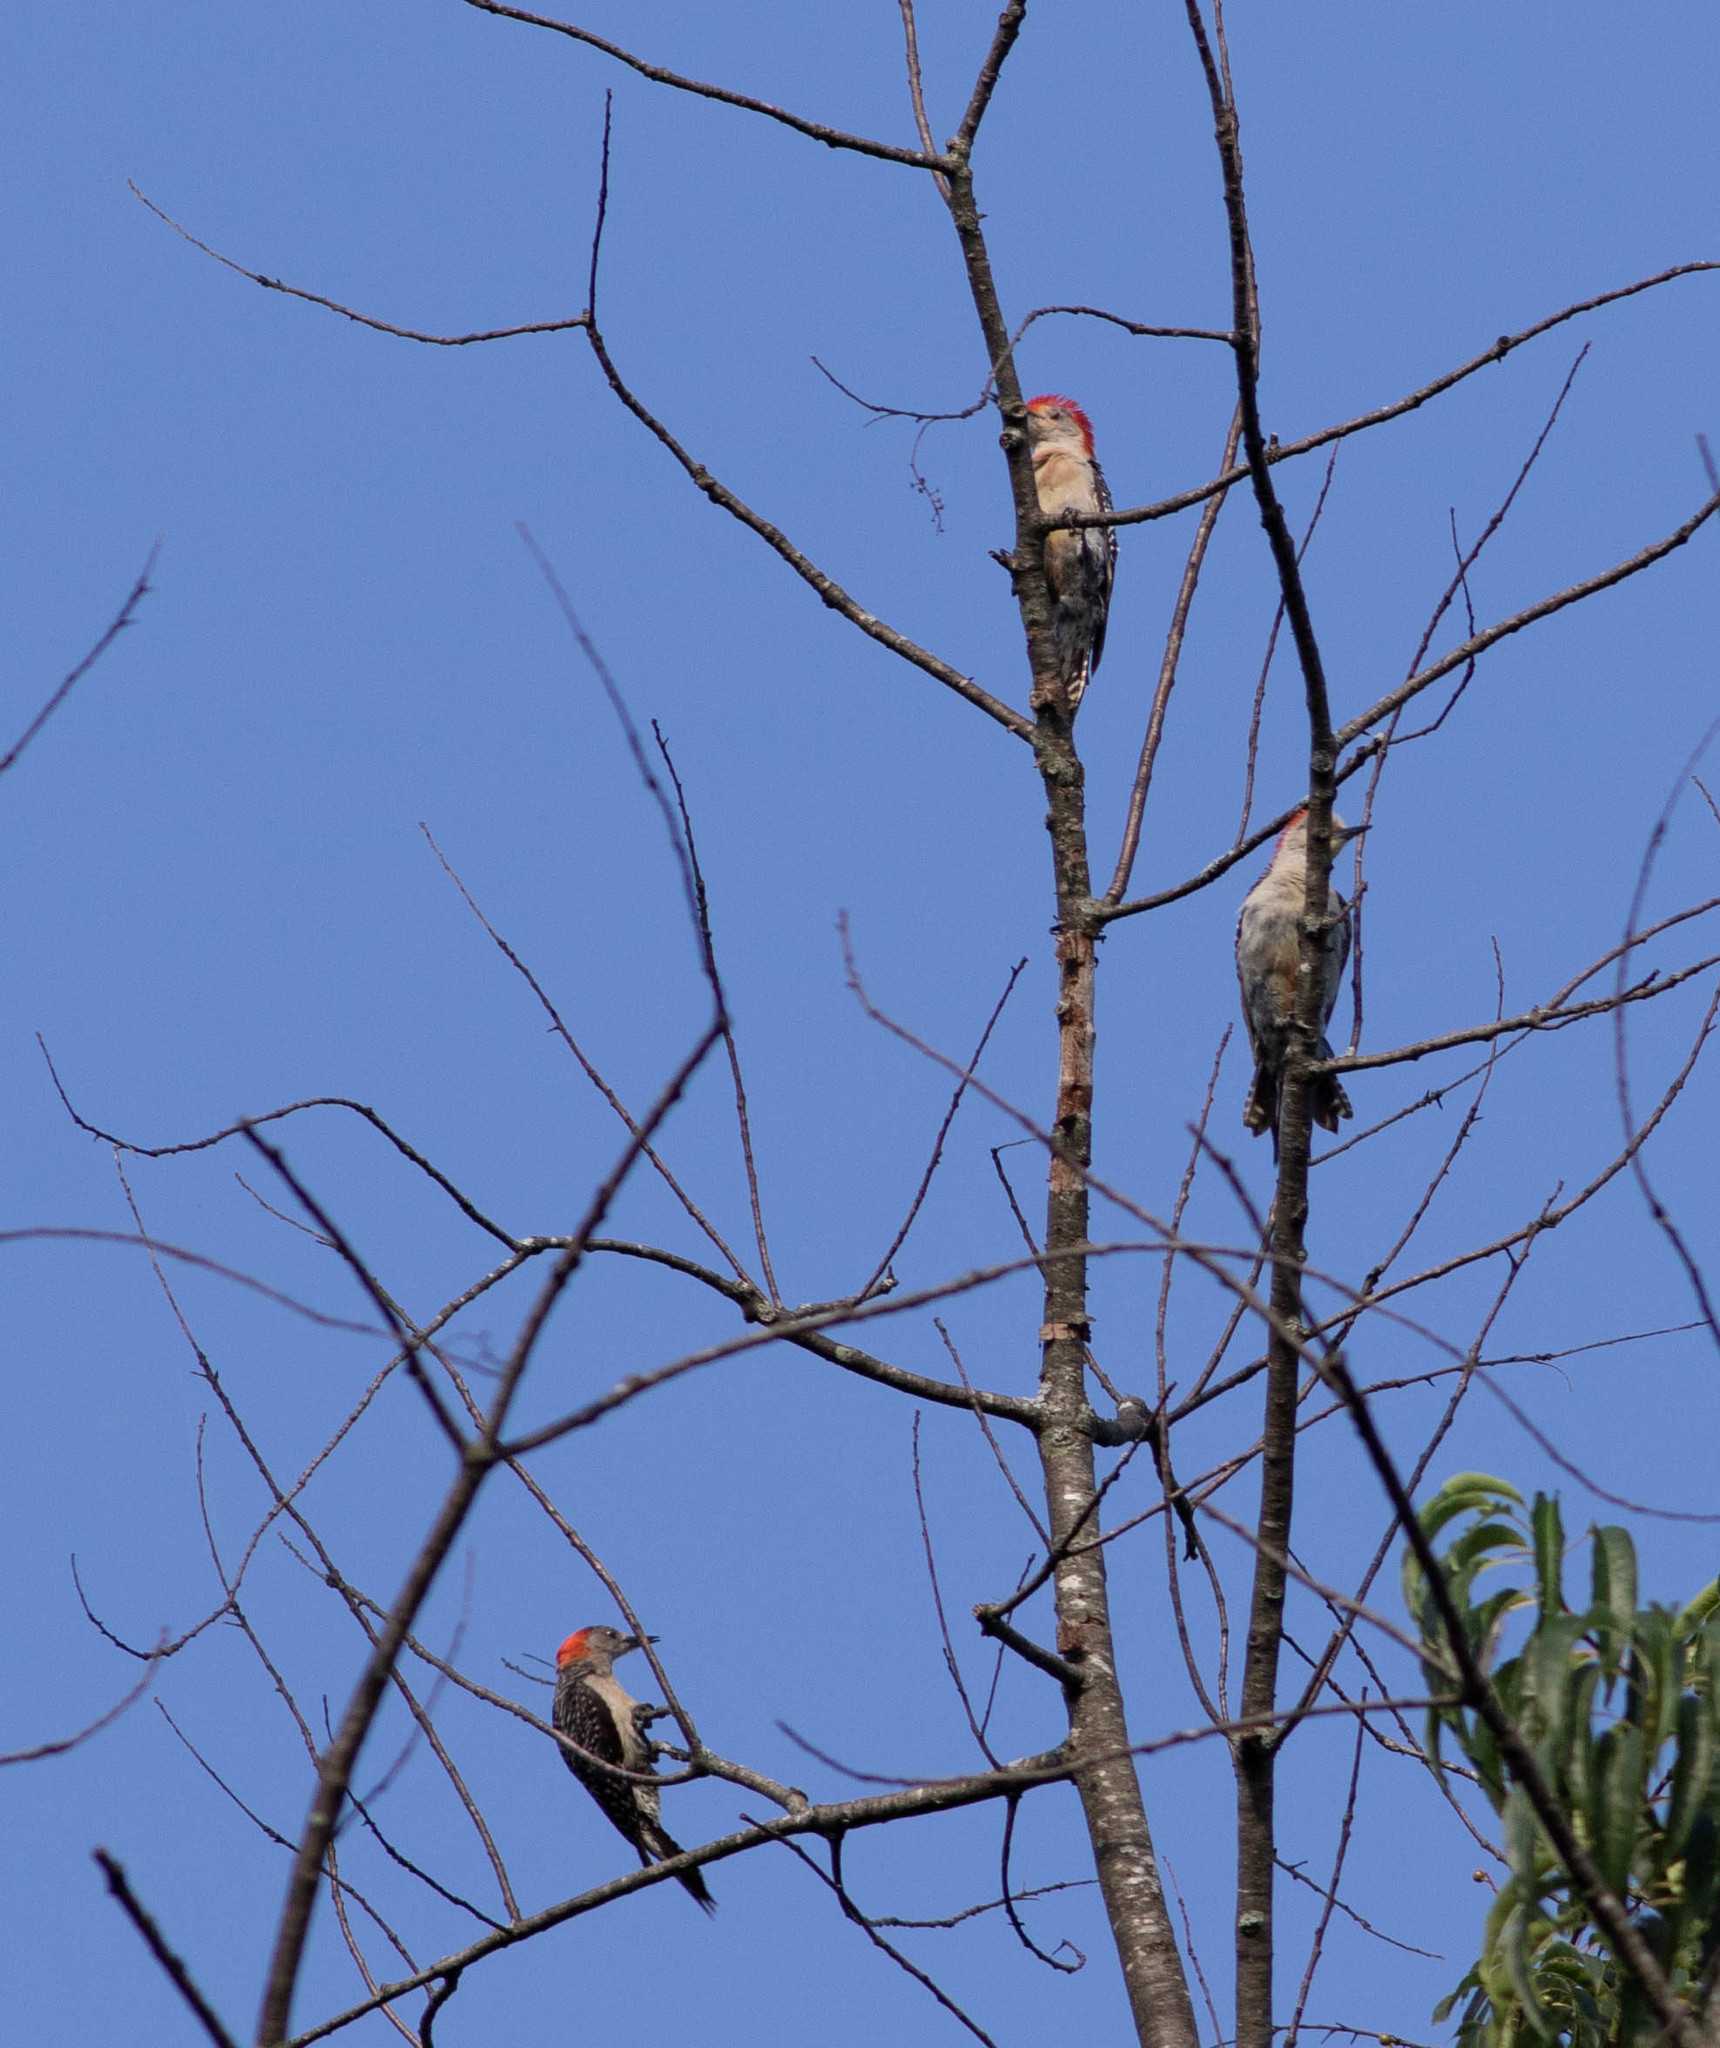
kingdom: Animalia
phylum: Chordata
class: Aves
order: Piciformes
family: Picidae
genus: Melanerpes
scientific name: Melanerpes carolinus
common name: Red-bellied woodpecker
